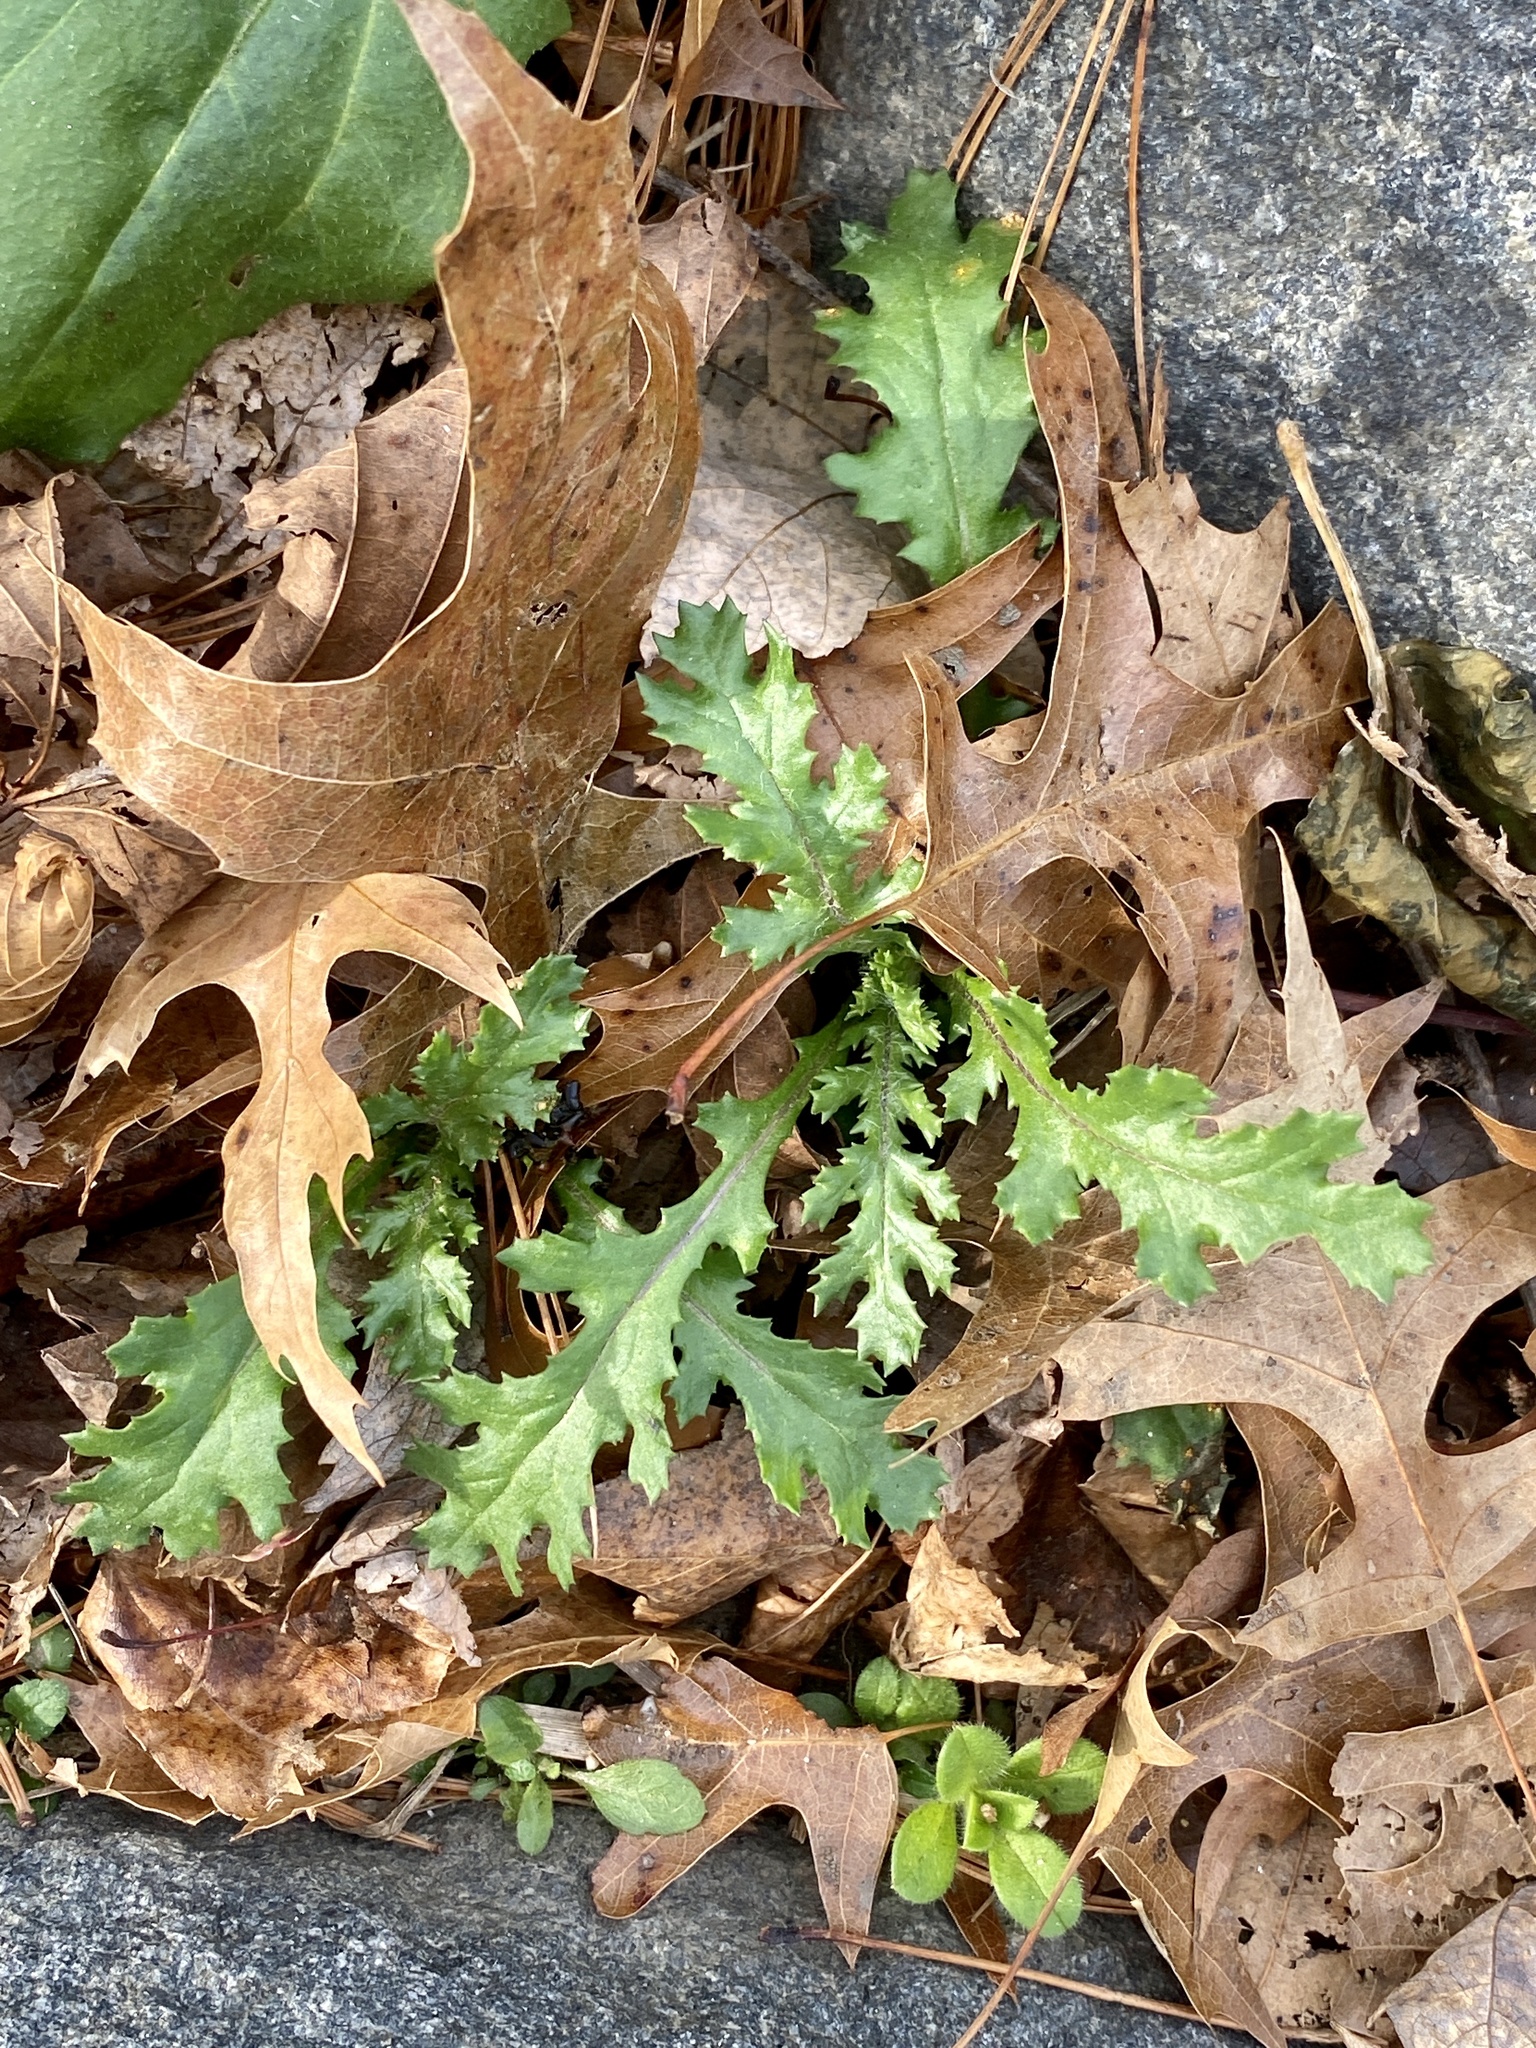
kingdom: Plantae
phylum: Tracheophyta
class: Magnoliopsida
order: Asterales
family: Asteraceae
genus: Senecio
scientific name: Senecio vulgaris
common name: Old-man-in-the-spring
